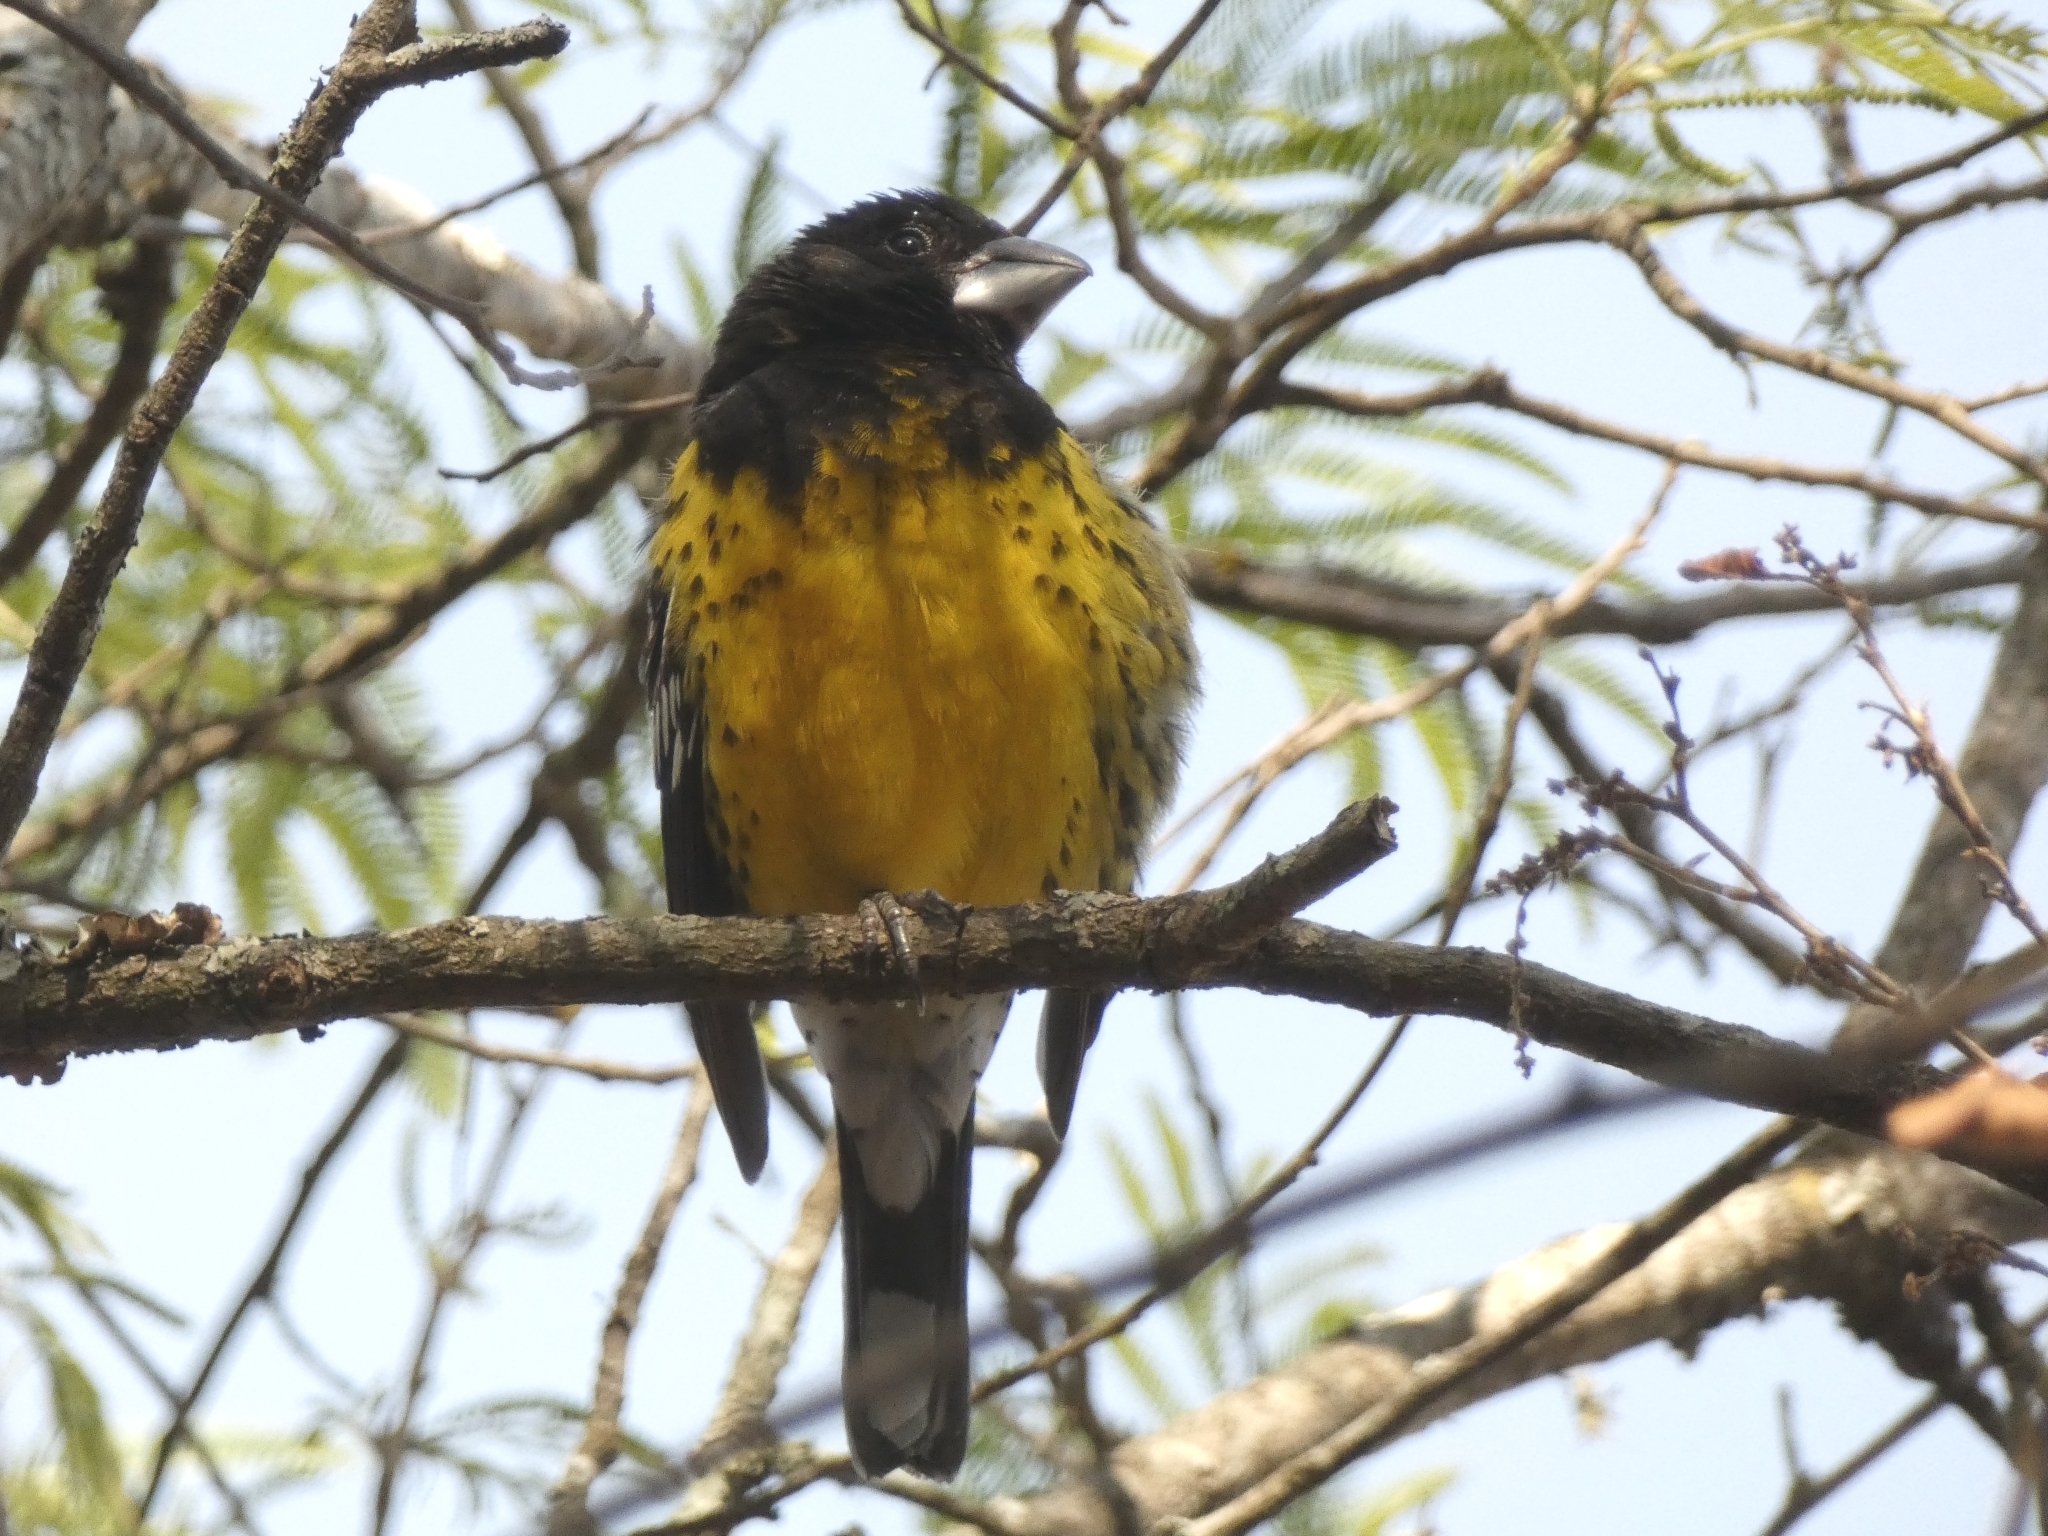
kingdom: Animalia
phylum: Chordata
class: Aves
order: Passeriformes
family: Cardinalidae
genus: Pheucticus
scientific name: Pheucticus aureoventris
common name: Black-backed grosbeak
